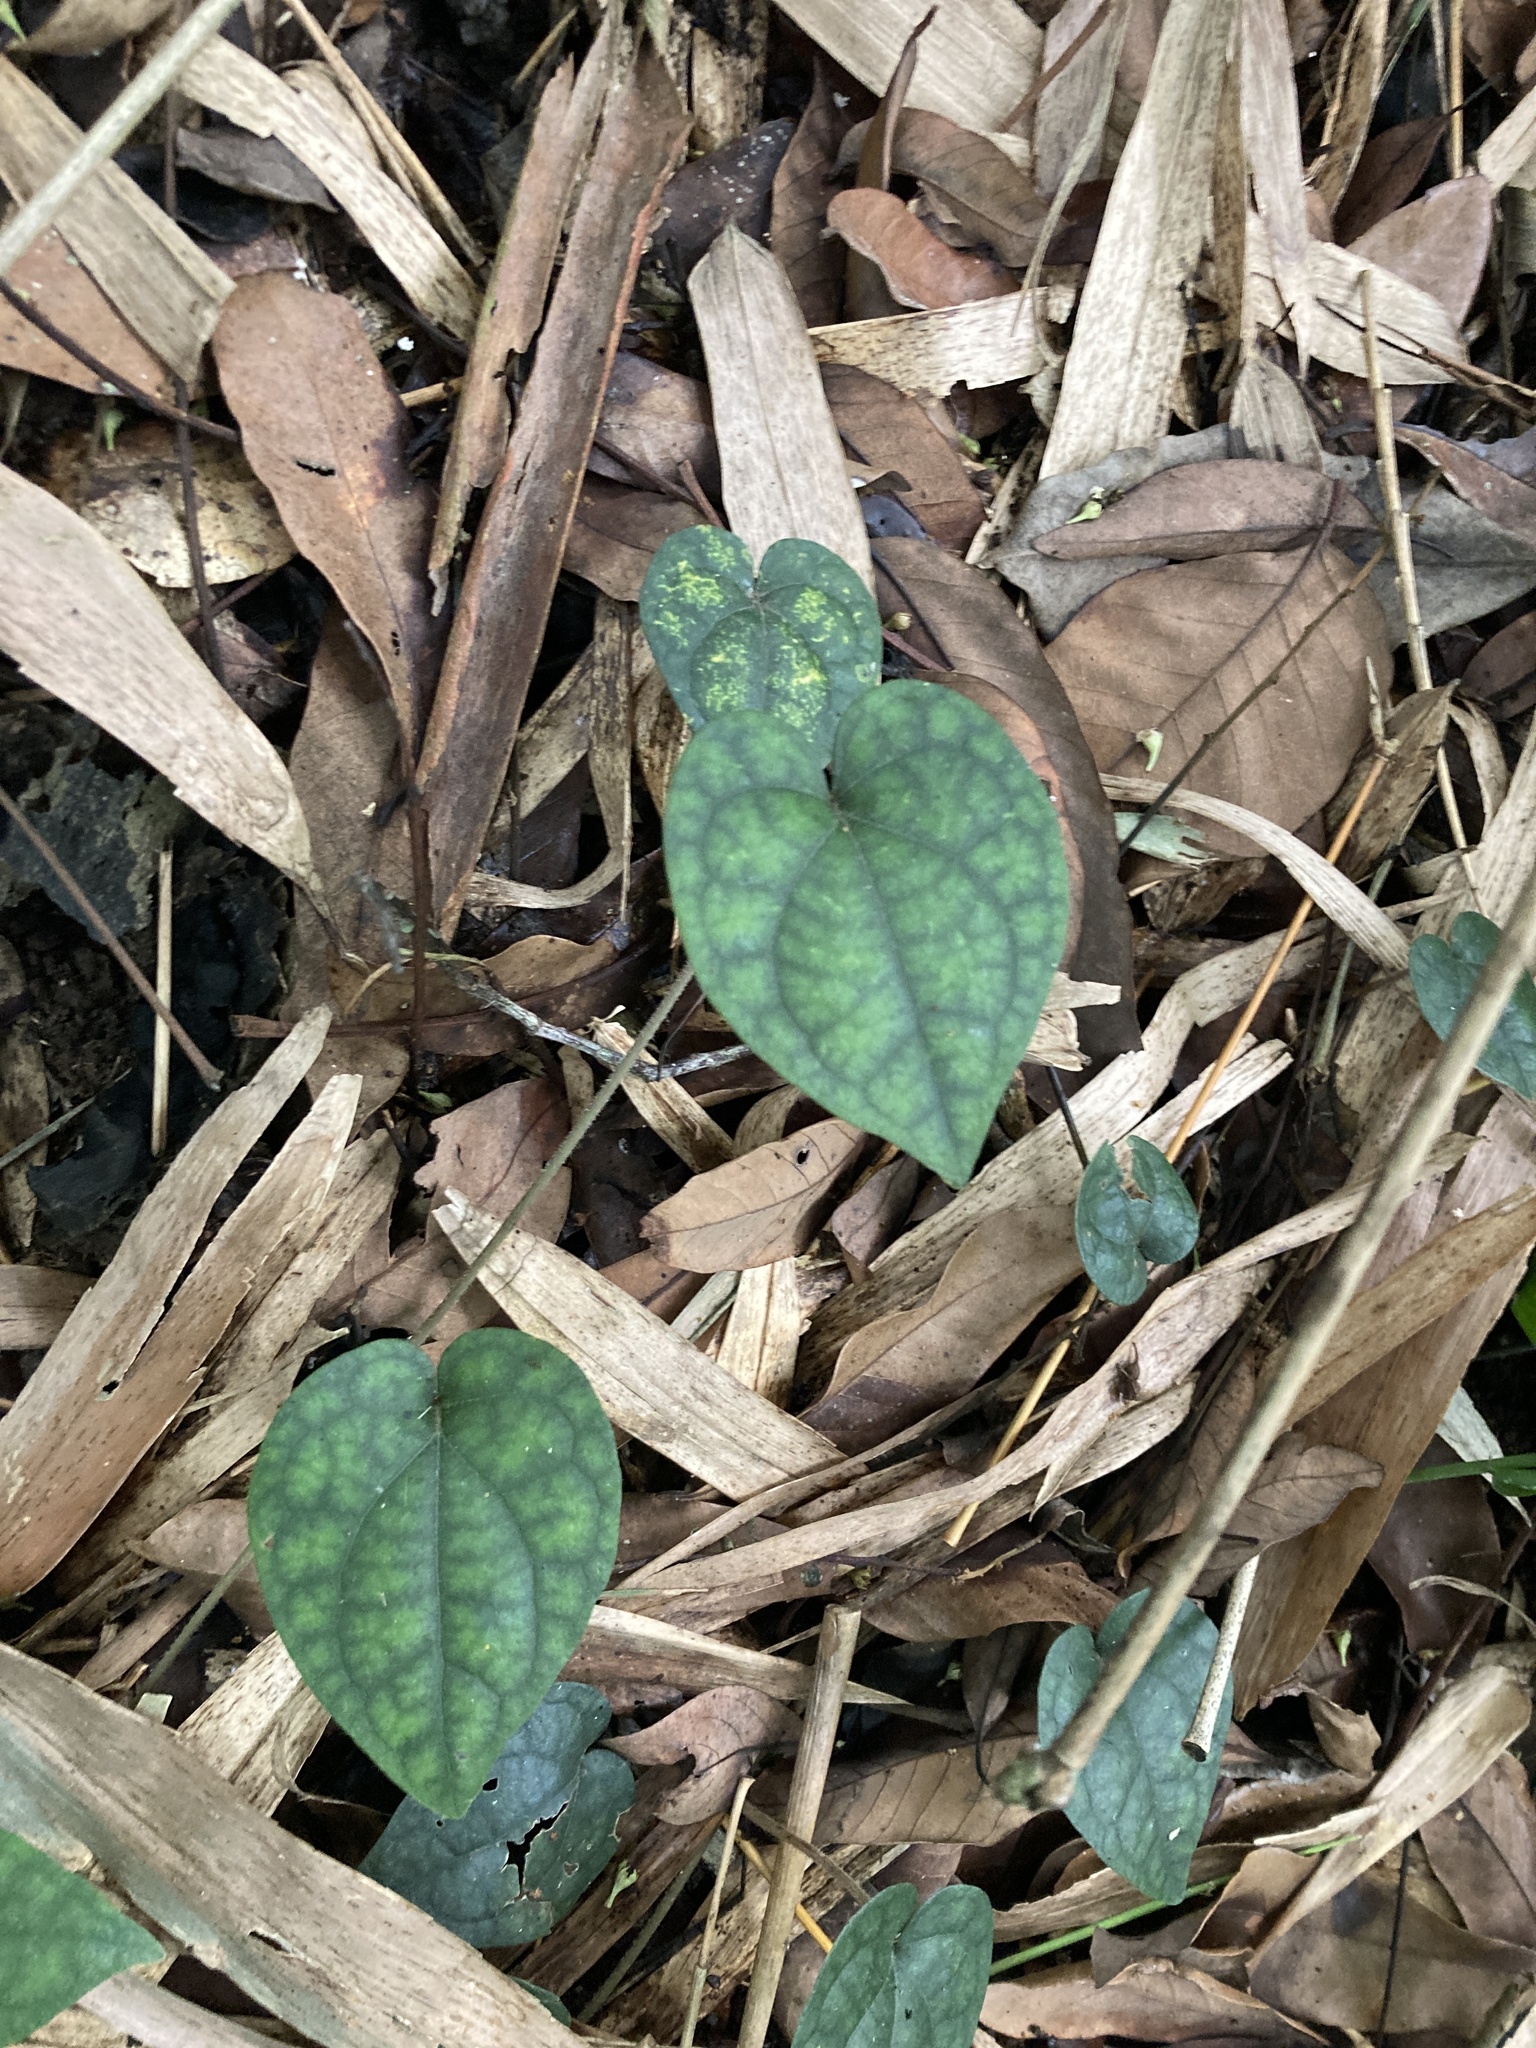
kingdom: Plantae
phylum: Tracheophyta
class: Magnoliopsida
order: Piperales
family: Piperaceae
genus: Piper
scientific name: Piper kadsura
